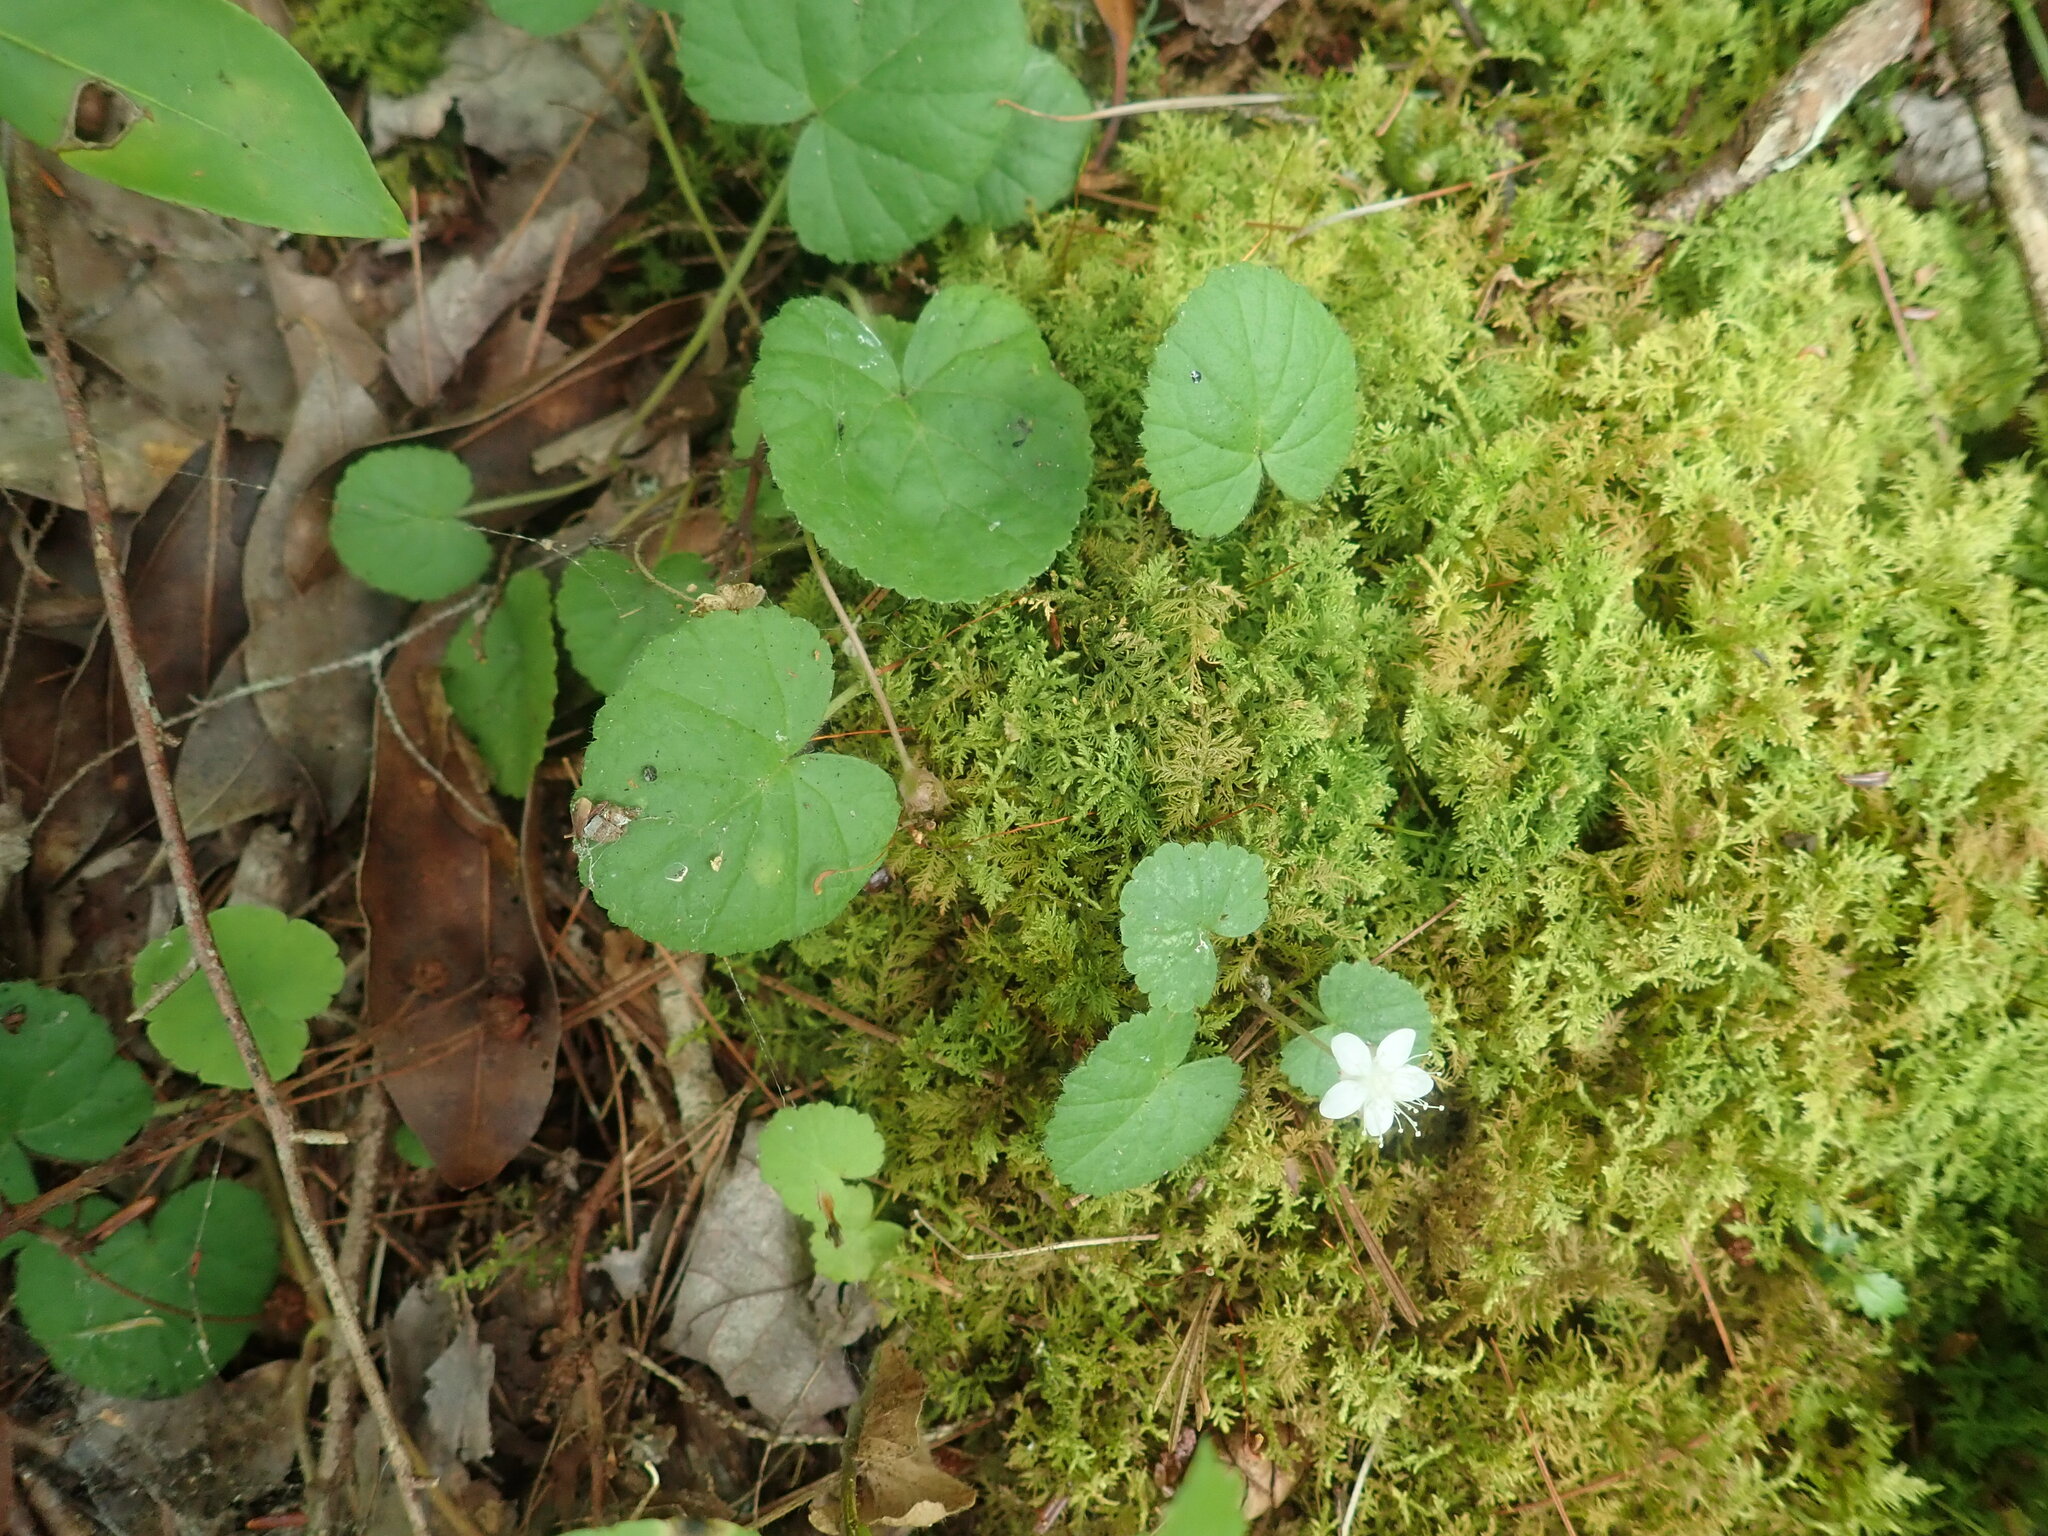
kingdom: Plantae
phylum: Tracheophyta
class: Magnoliopsida
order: Rosales
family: Rosaceae
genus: Dalibarda
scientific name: Dalibarda repens
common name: Dewdrop
